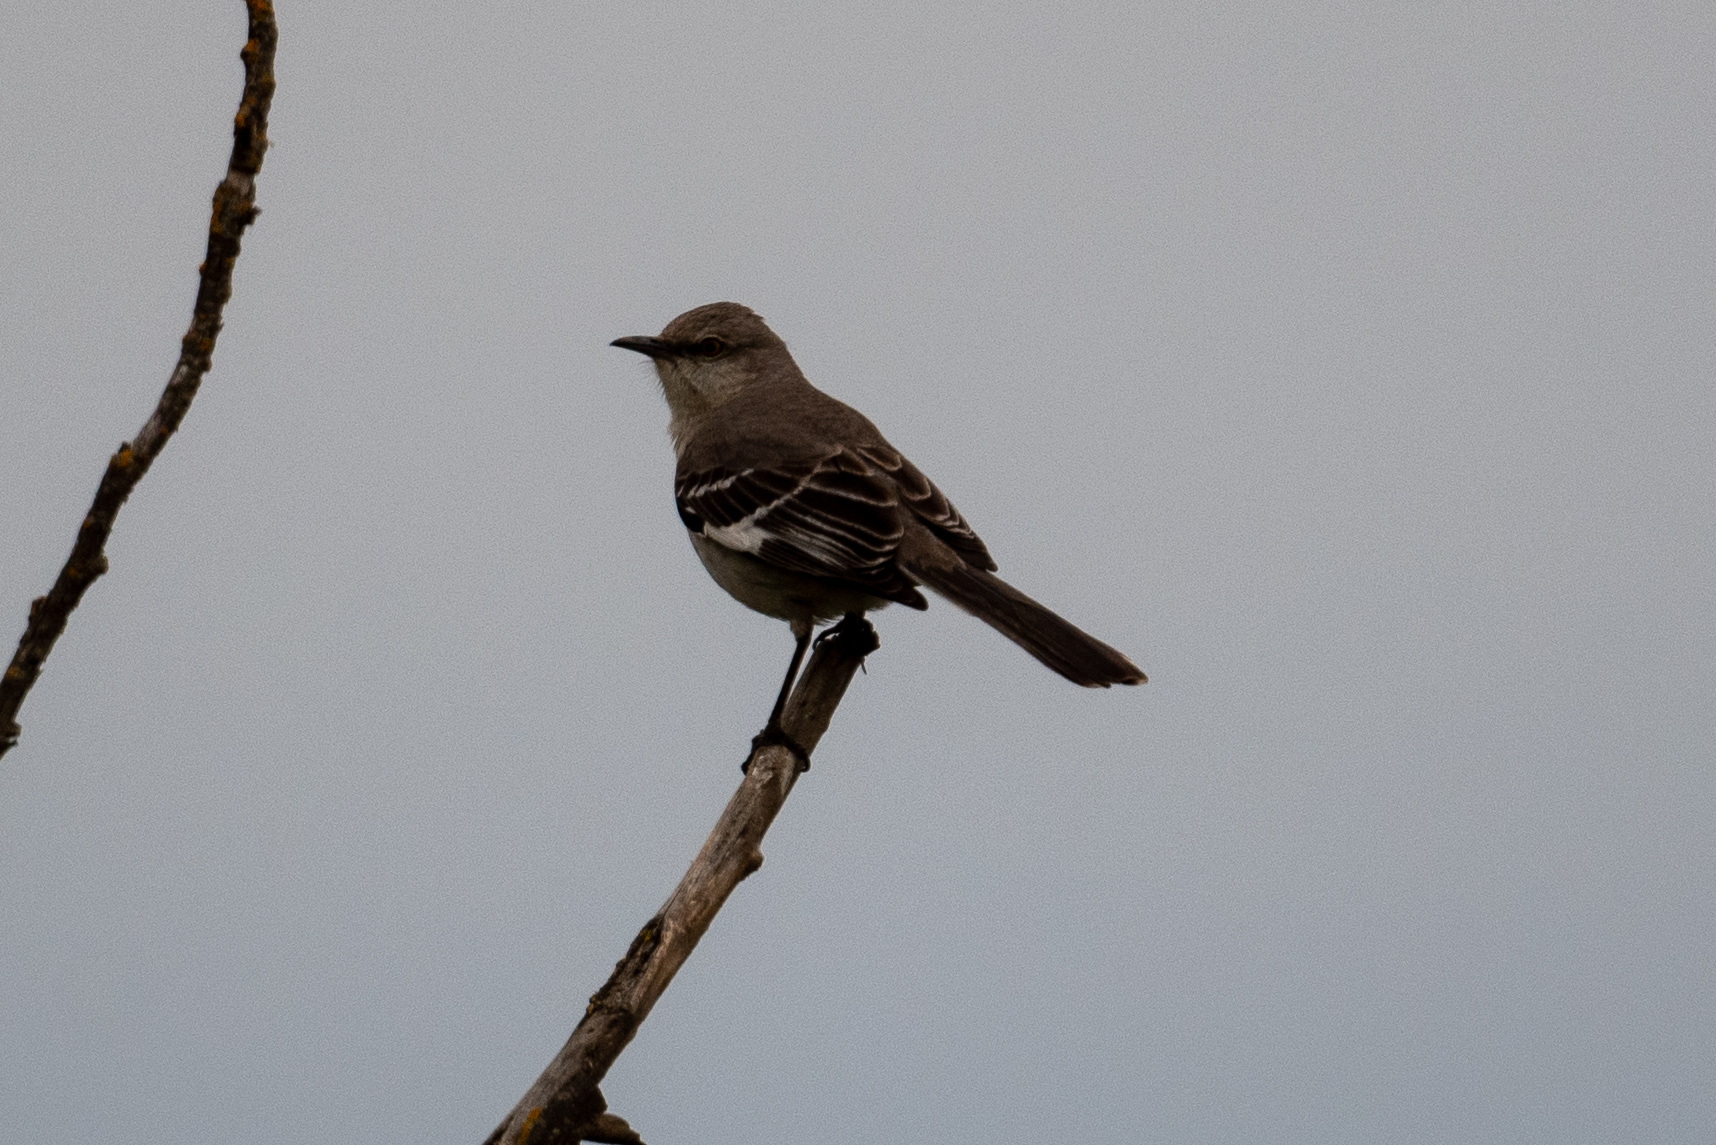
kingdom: Animalia
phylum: Chordata
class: Aves
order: Passeriformes
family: Mimidae
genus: Mimus
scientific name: Mimus polyglottos
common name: Northern mockingbird
